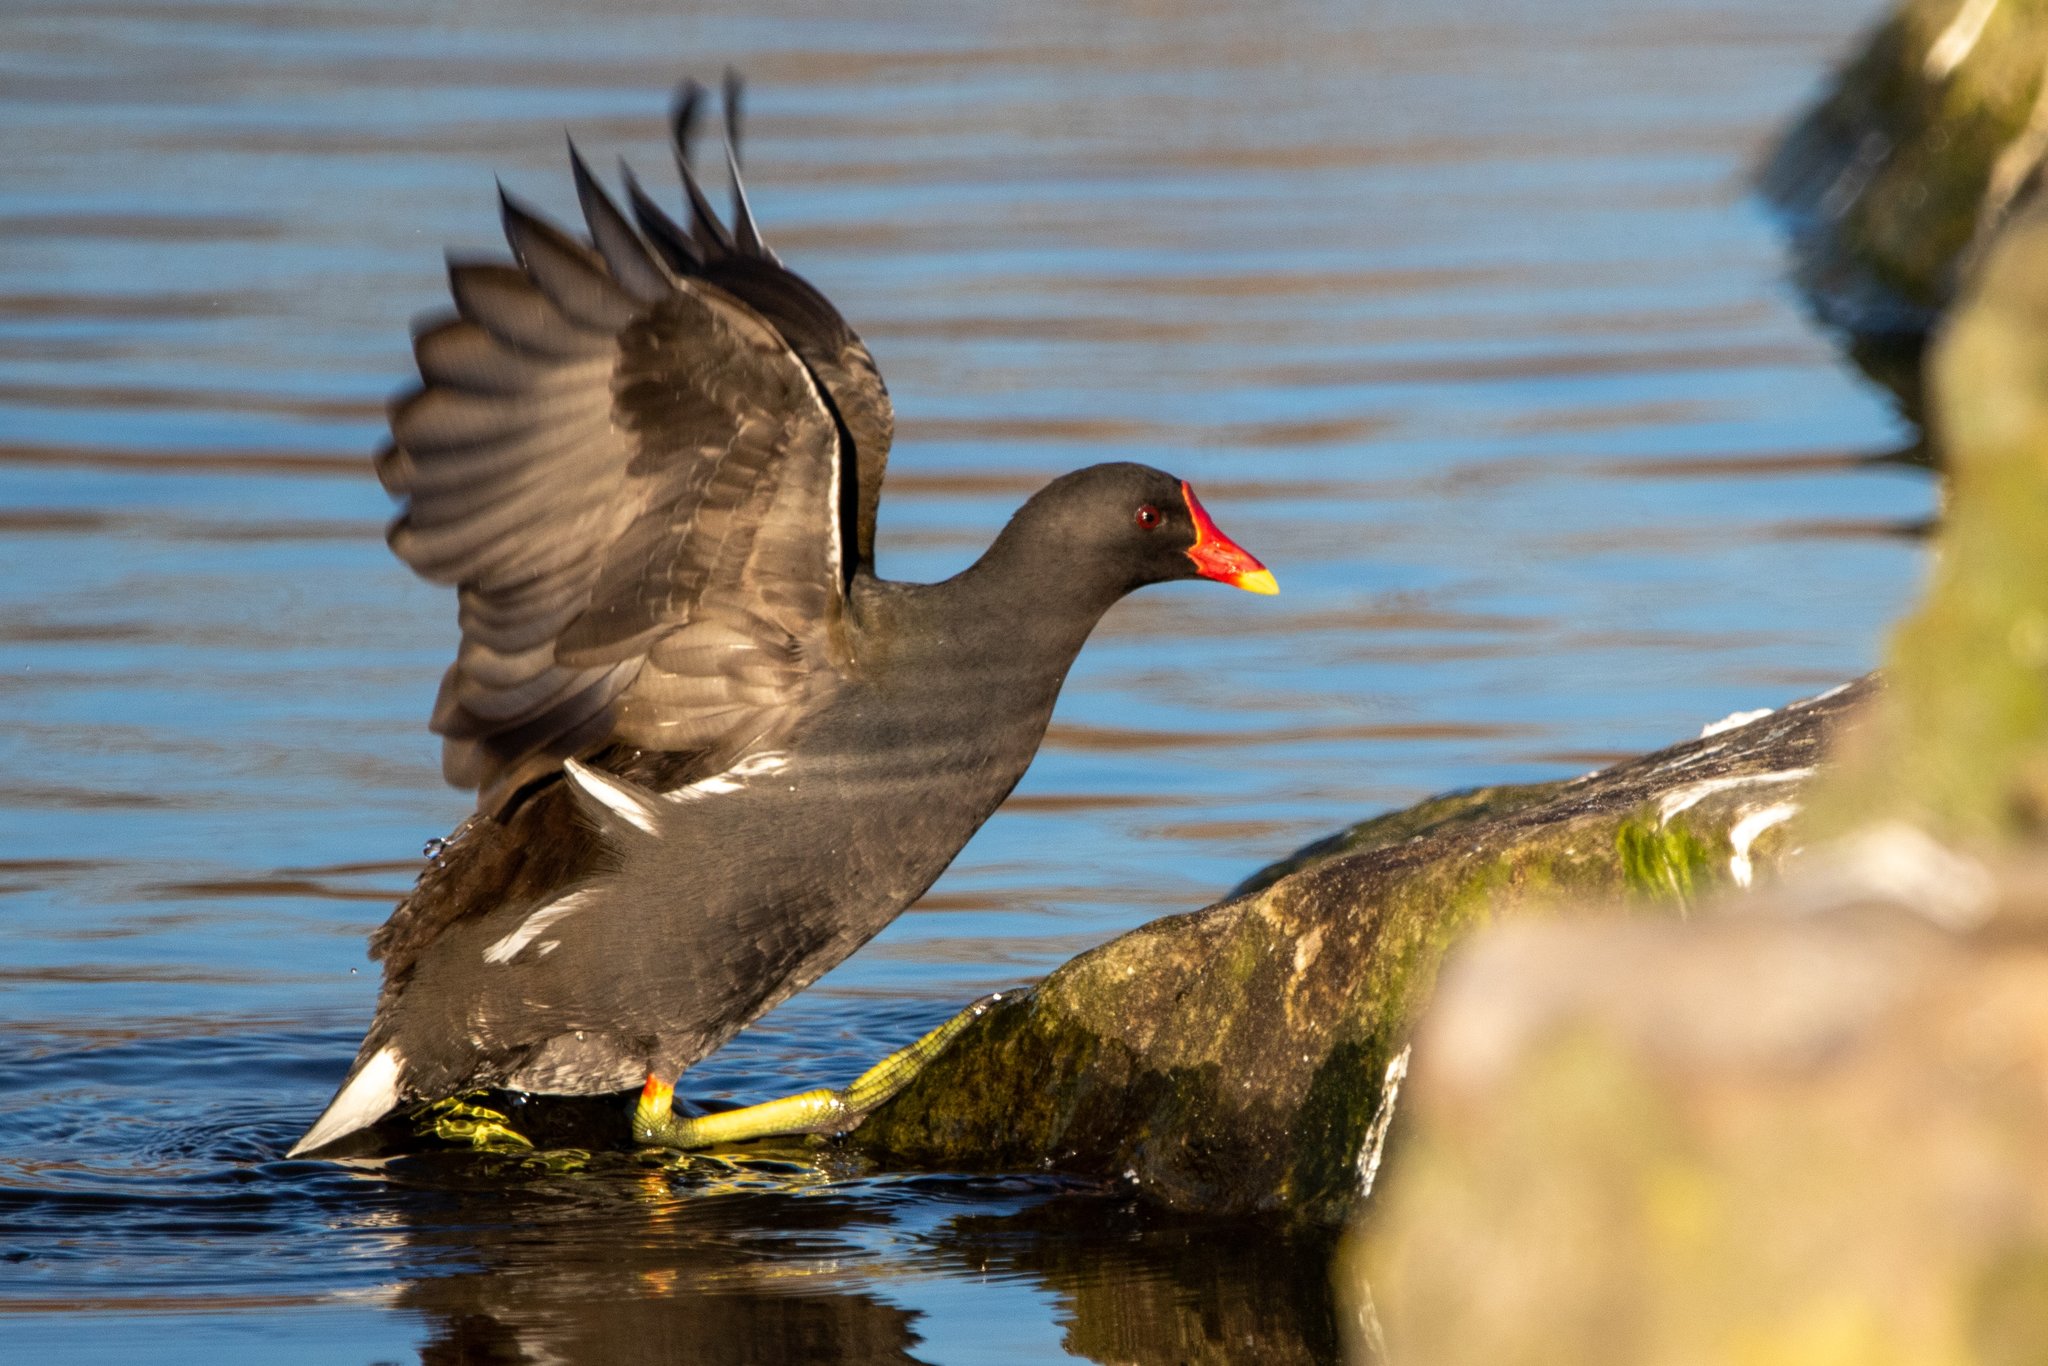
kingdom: Animalia
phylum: Chordata
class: Aves
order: Gruiformes
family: Rallidae
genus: Gallinula
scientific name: Gallinula chloropus
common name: Common moorhen
